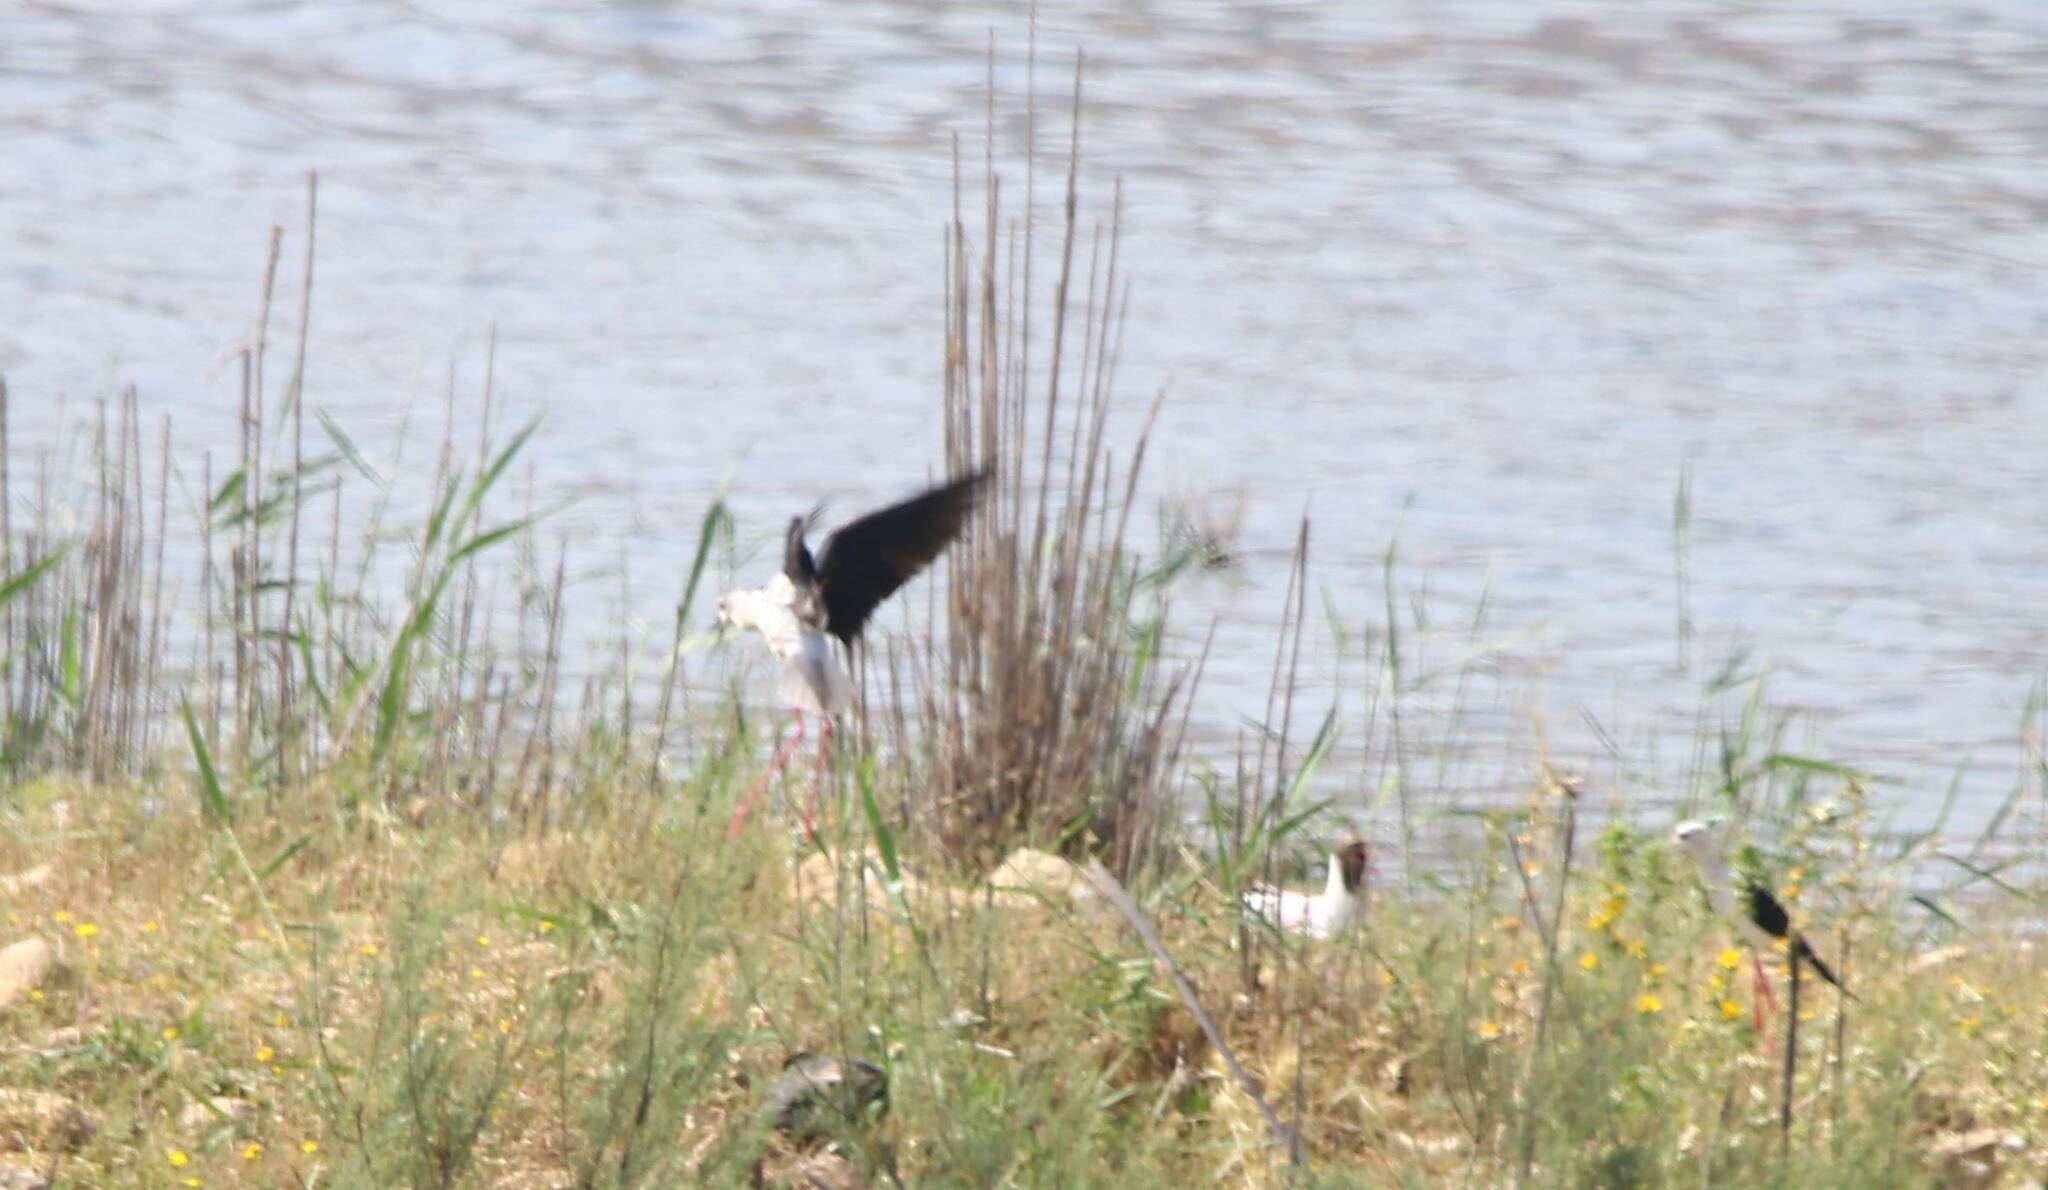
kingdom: Animalia
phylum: Chordata
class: Aves
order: Charadriiformes
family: Recurvirostridae
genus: Himantopus
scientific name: Himantopus himantopus
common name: Black-winged stilt
